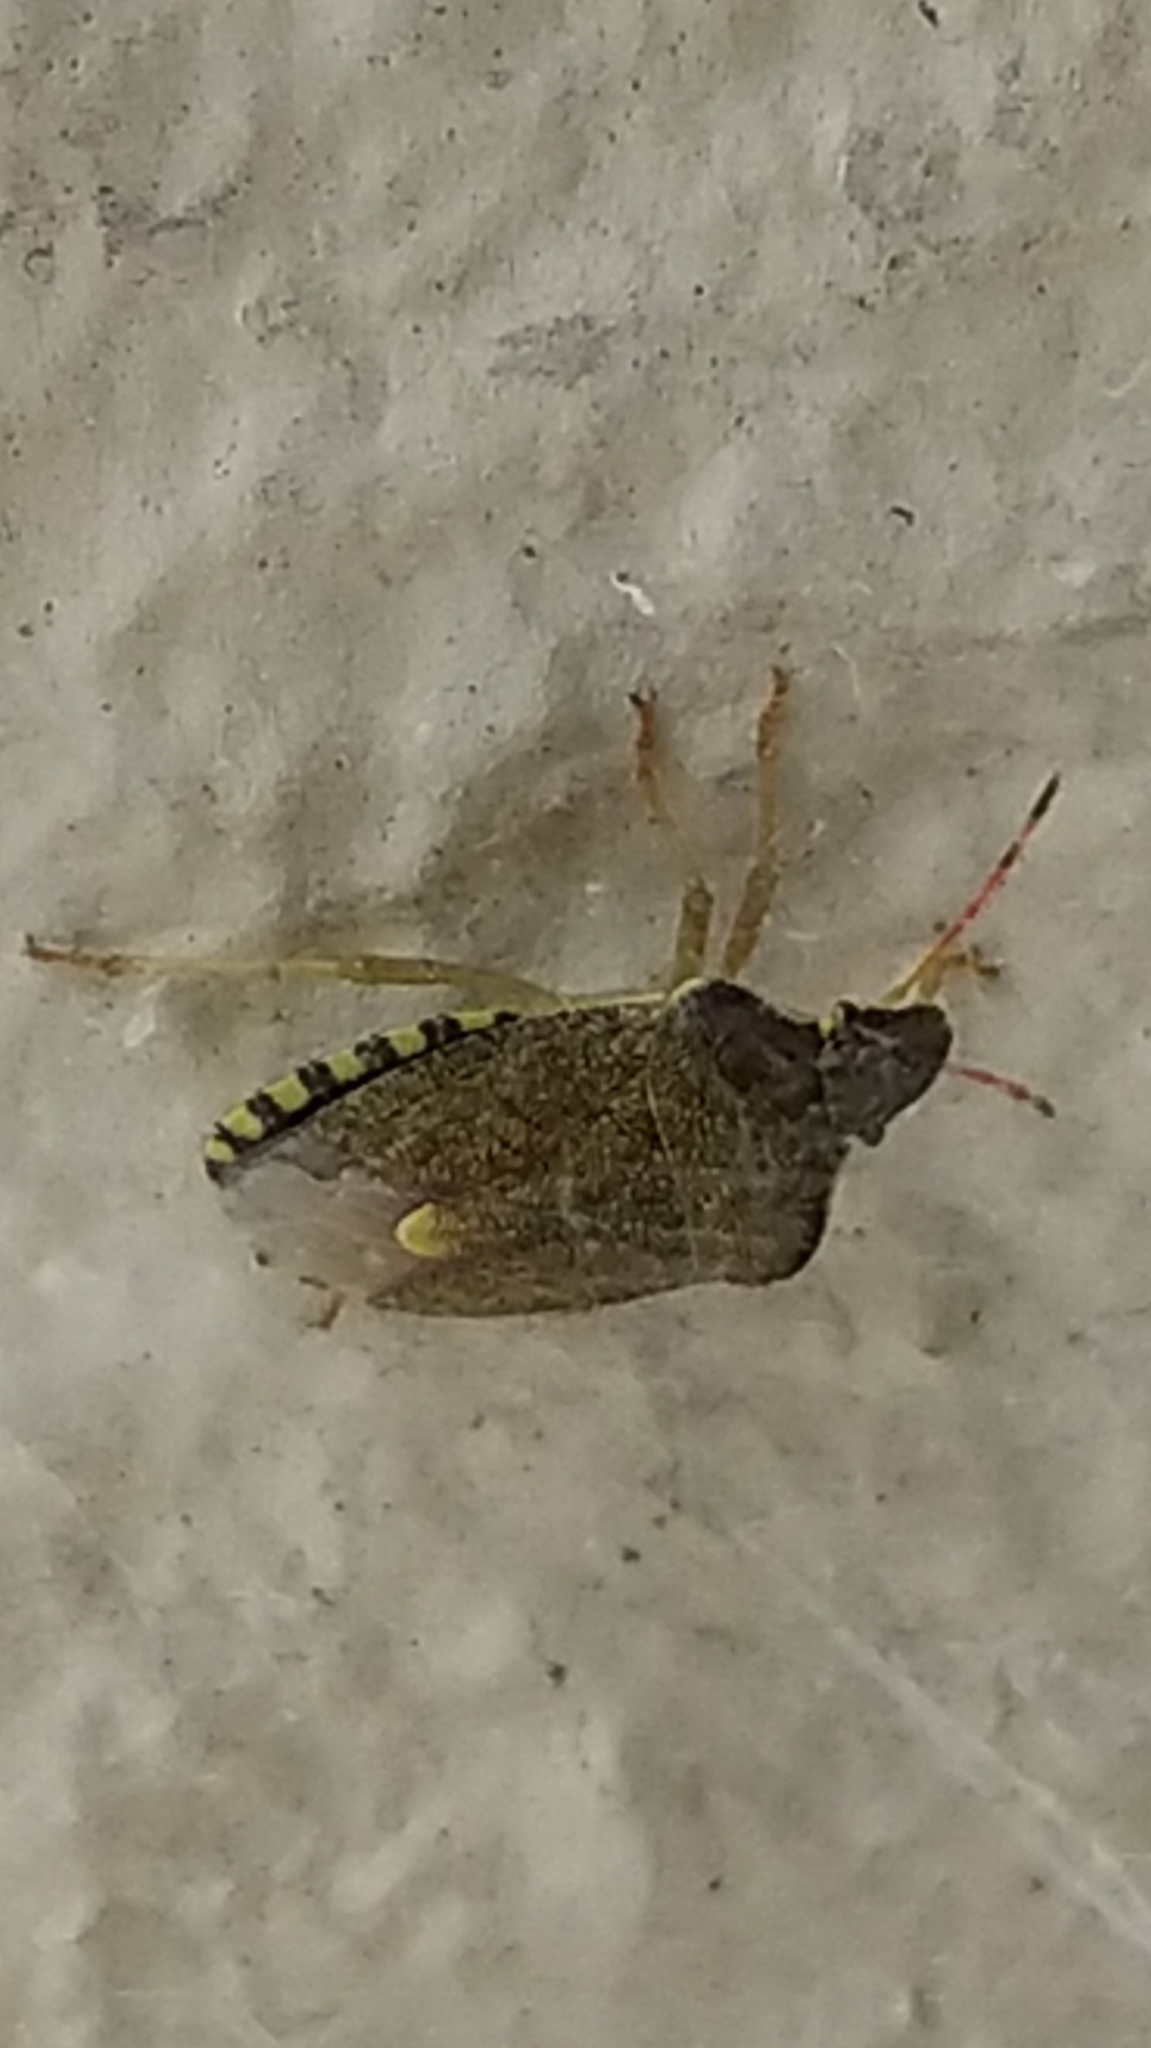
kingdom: Animalia
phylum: Arthropoda
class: Insecta
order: Hemiptera
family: Pentatomidae
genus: Holcostethus
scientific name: Holcostethus strictus
